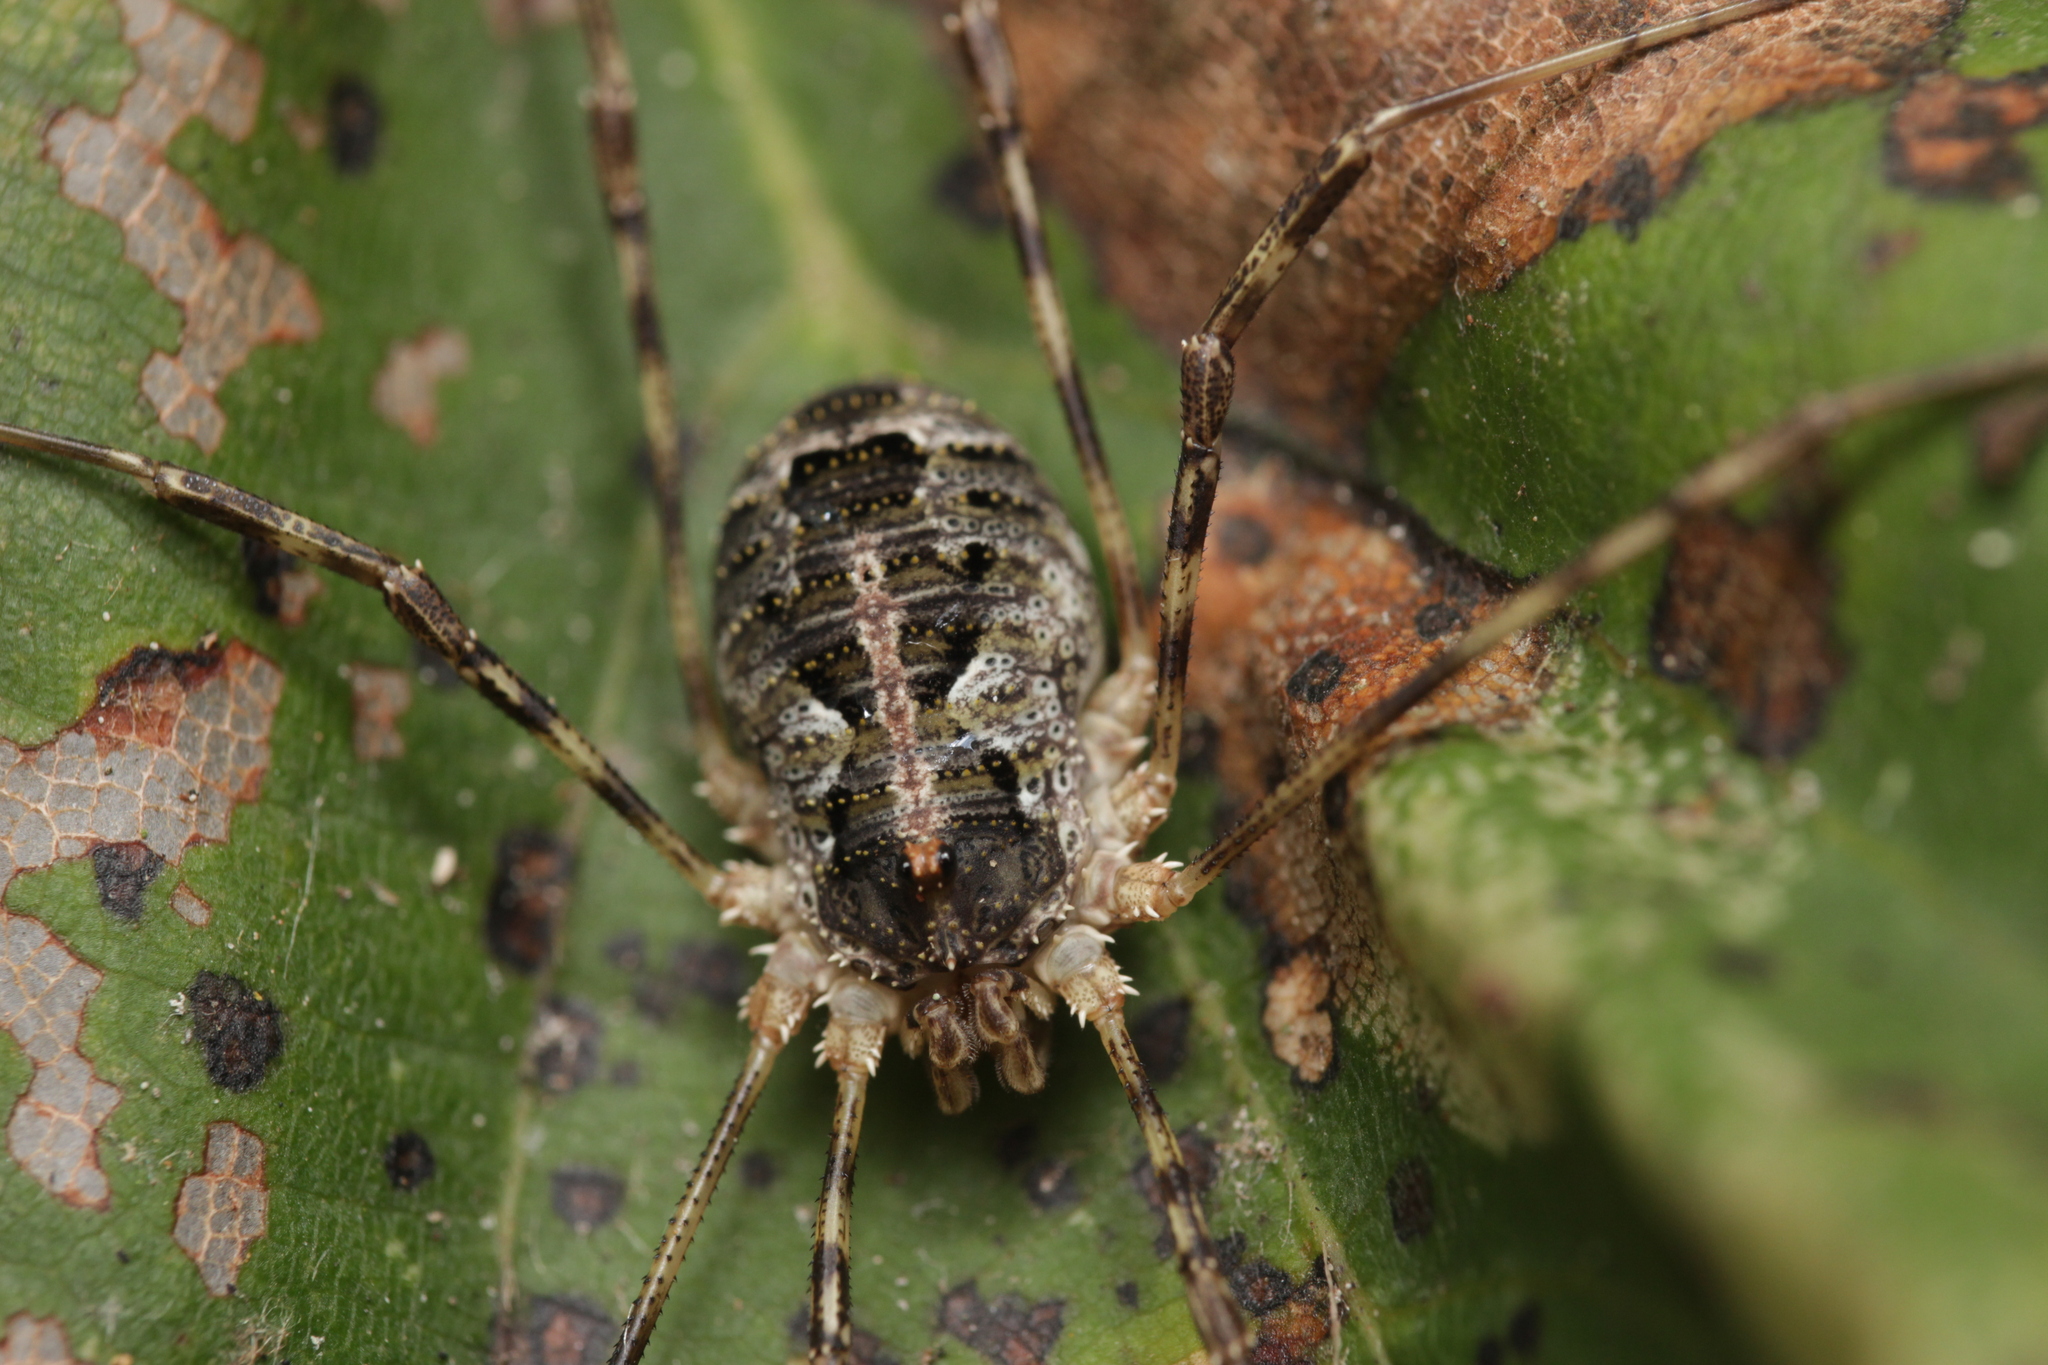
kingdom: Animalia
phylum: Arthropoda
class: Arachnida
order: Opiliones
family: Phalangiidae
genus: Lacinius
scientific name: Lacinius dentiger
